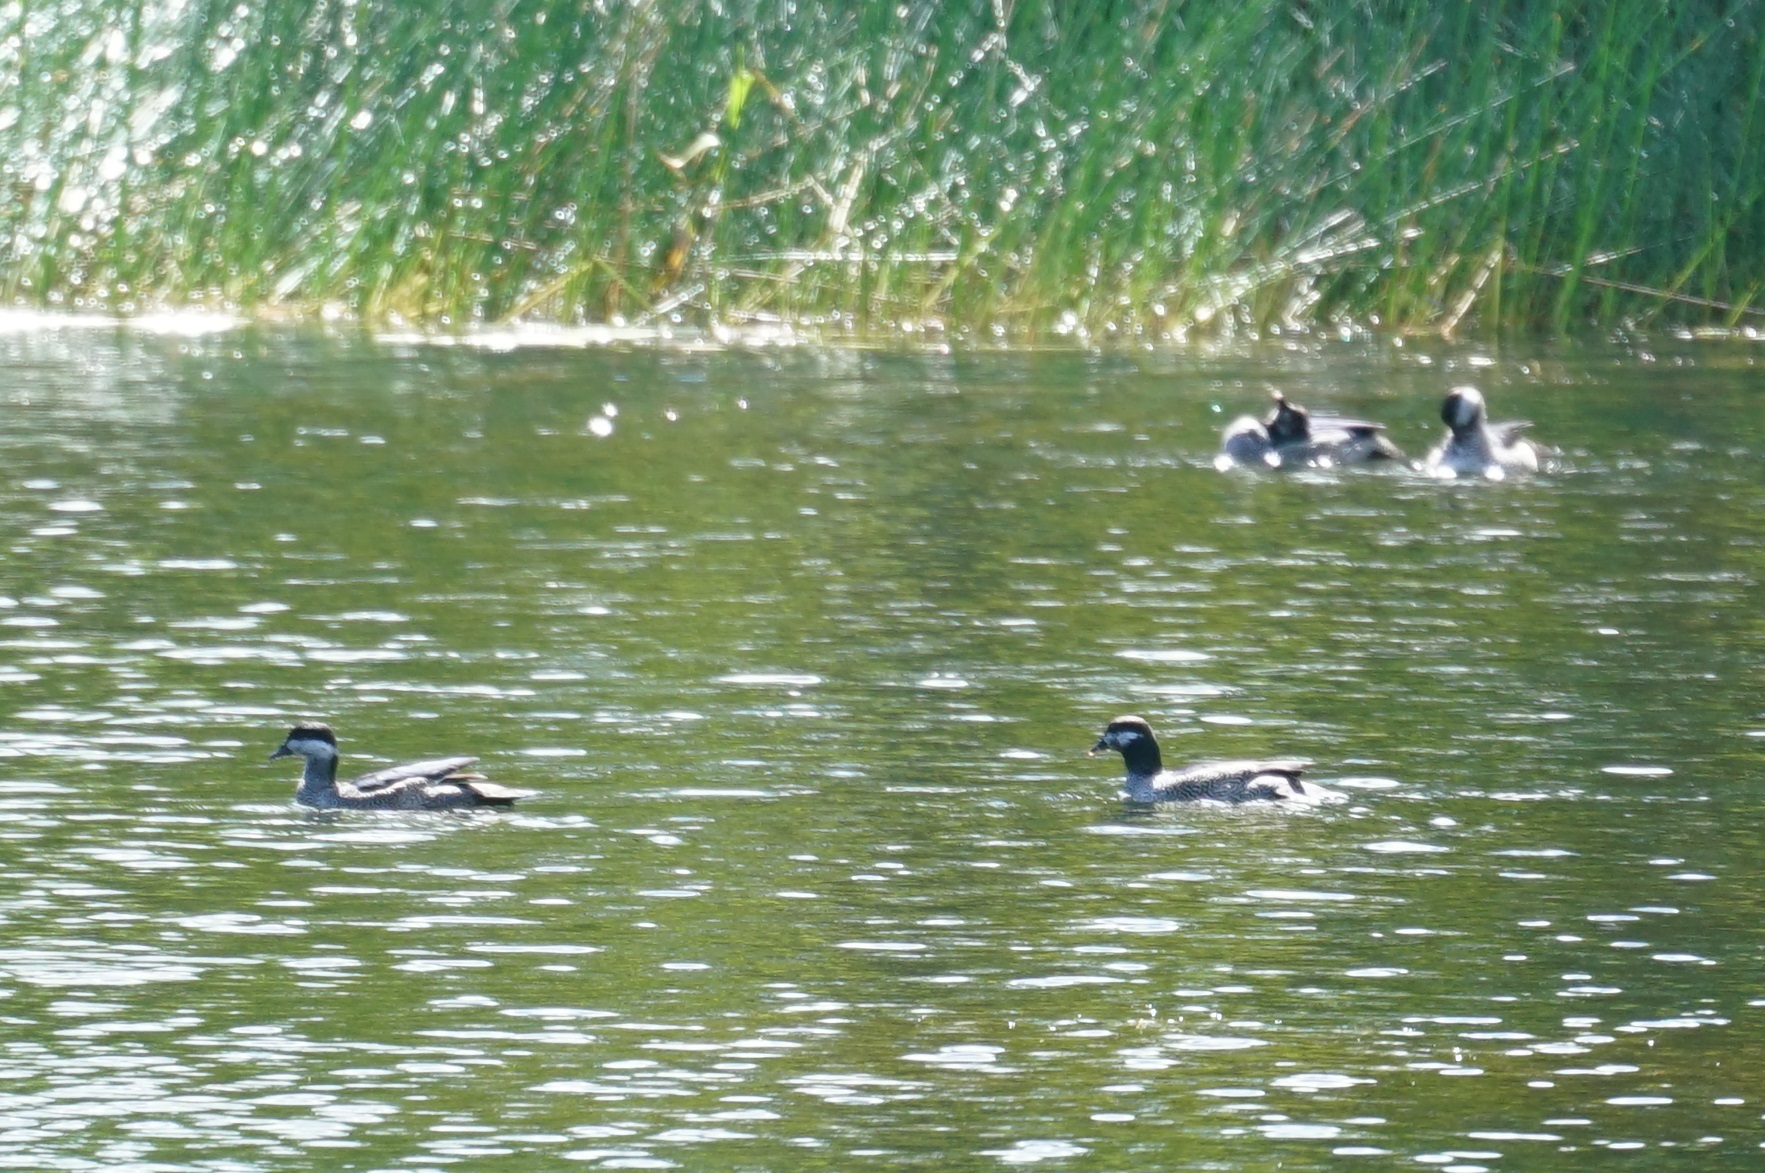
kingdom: Animalia
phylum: Chordata
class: Aves
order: Anseriformes
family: Anatidae
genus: Nettapus
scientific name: Nettapus pulchellus
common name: Green pygmy-goose
